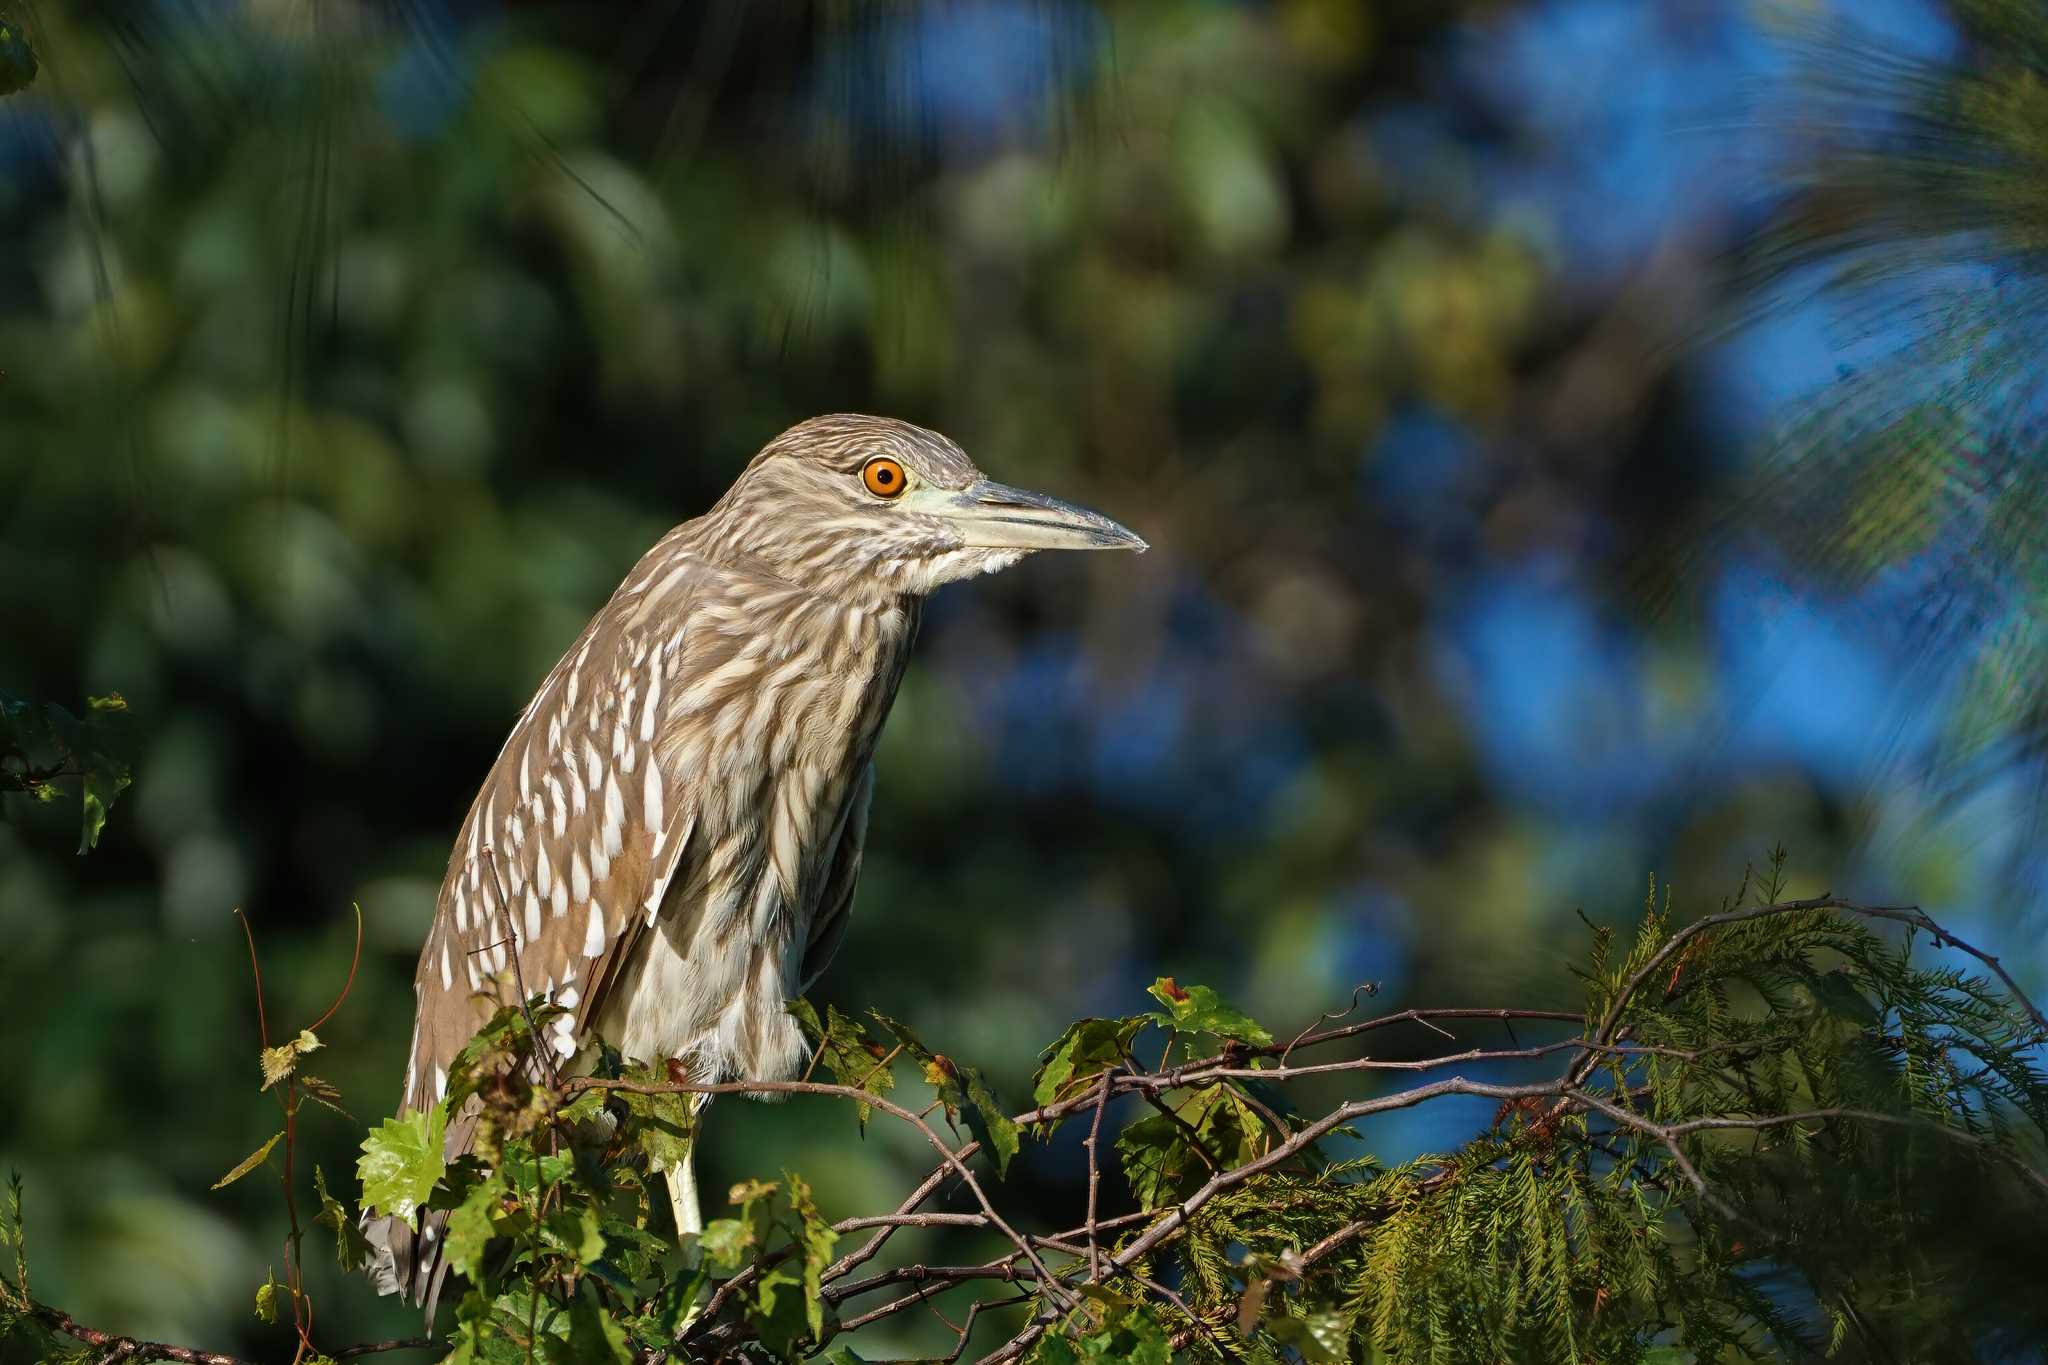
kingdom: Animalia
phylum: Chordata
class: Aves
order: Pelecaniformes
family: Ardeidae
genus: Nycticorax
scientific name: Nycticorax nycticorax
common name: Black-crowned night heron
